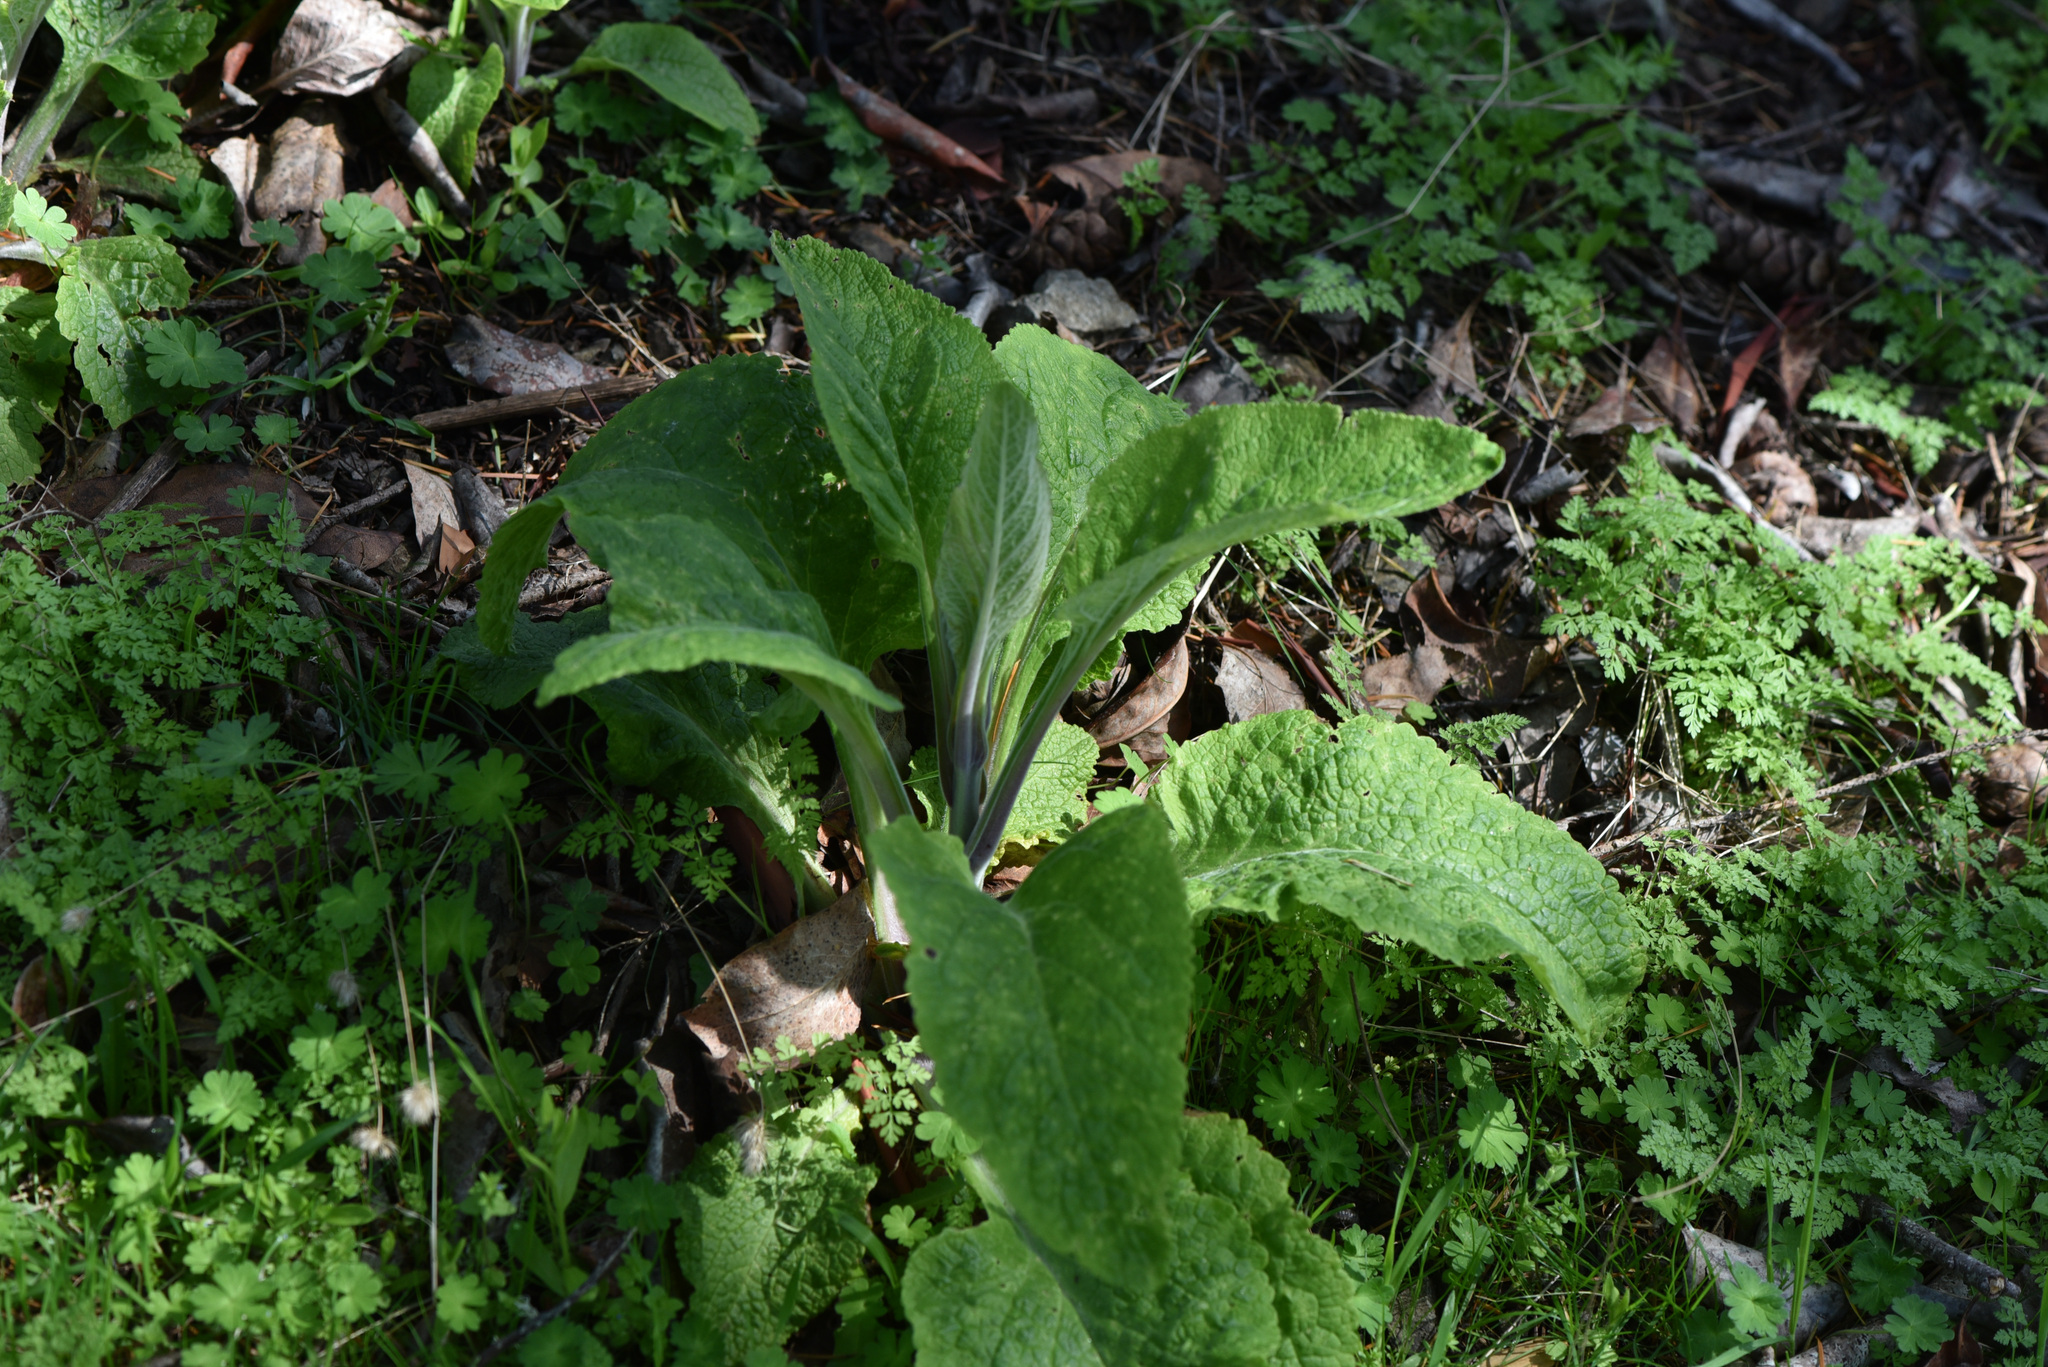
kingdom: Plantae
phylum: Tracheophyta
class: Magnoliopsida
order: Lamiales
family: Plantaginaceae
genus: Digitalis
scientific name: Digitalis purpurea
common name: Foxglove
